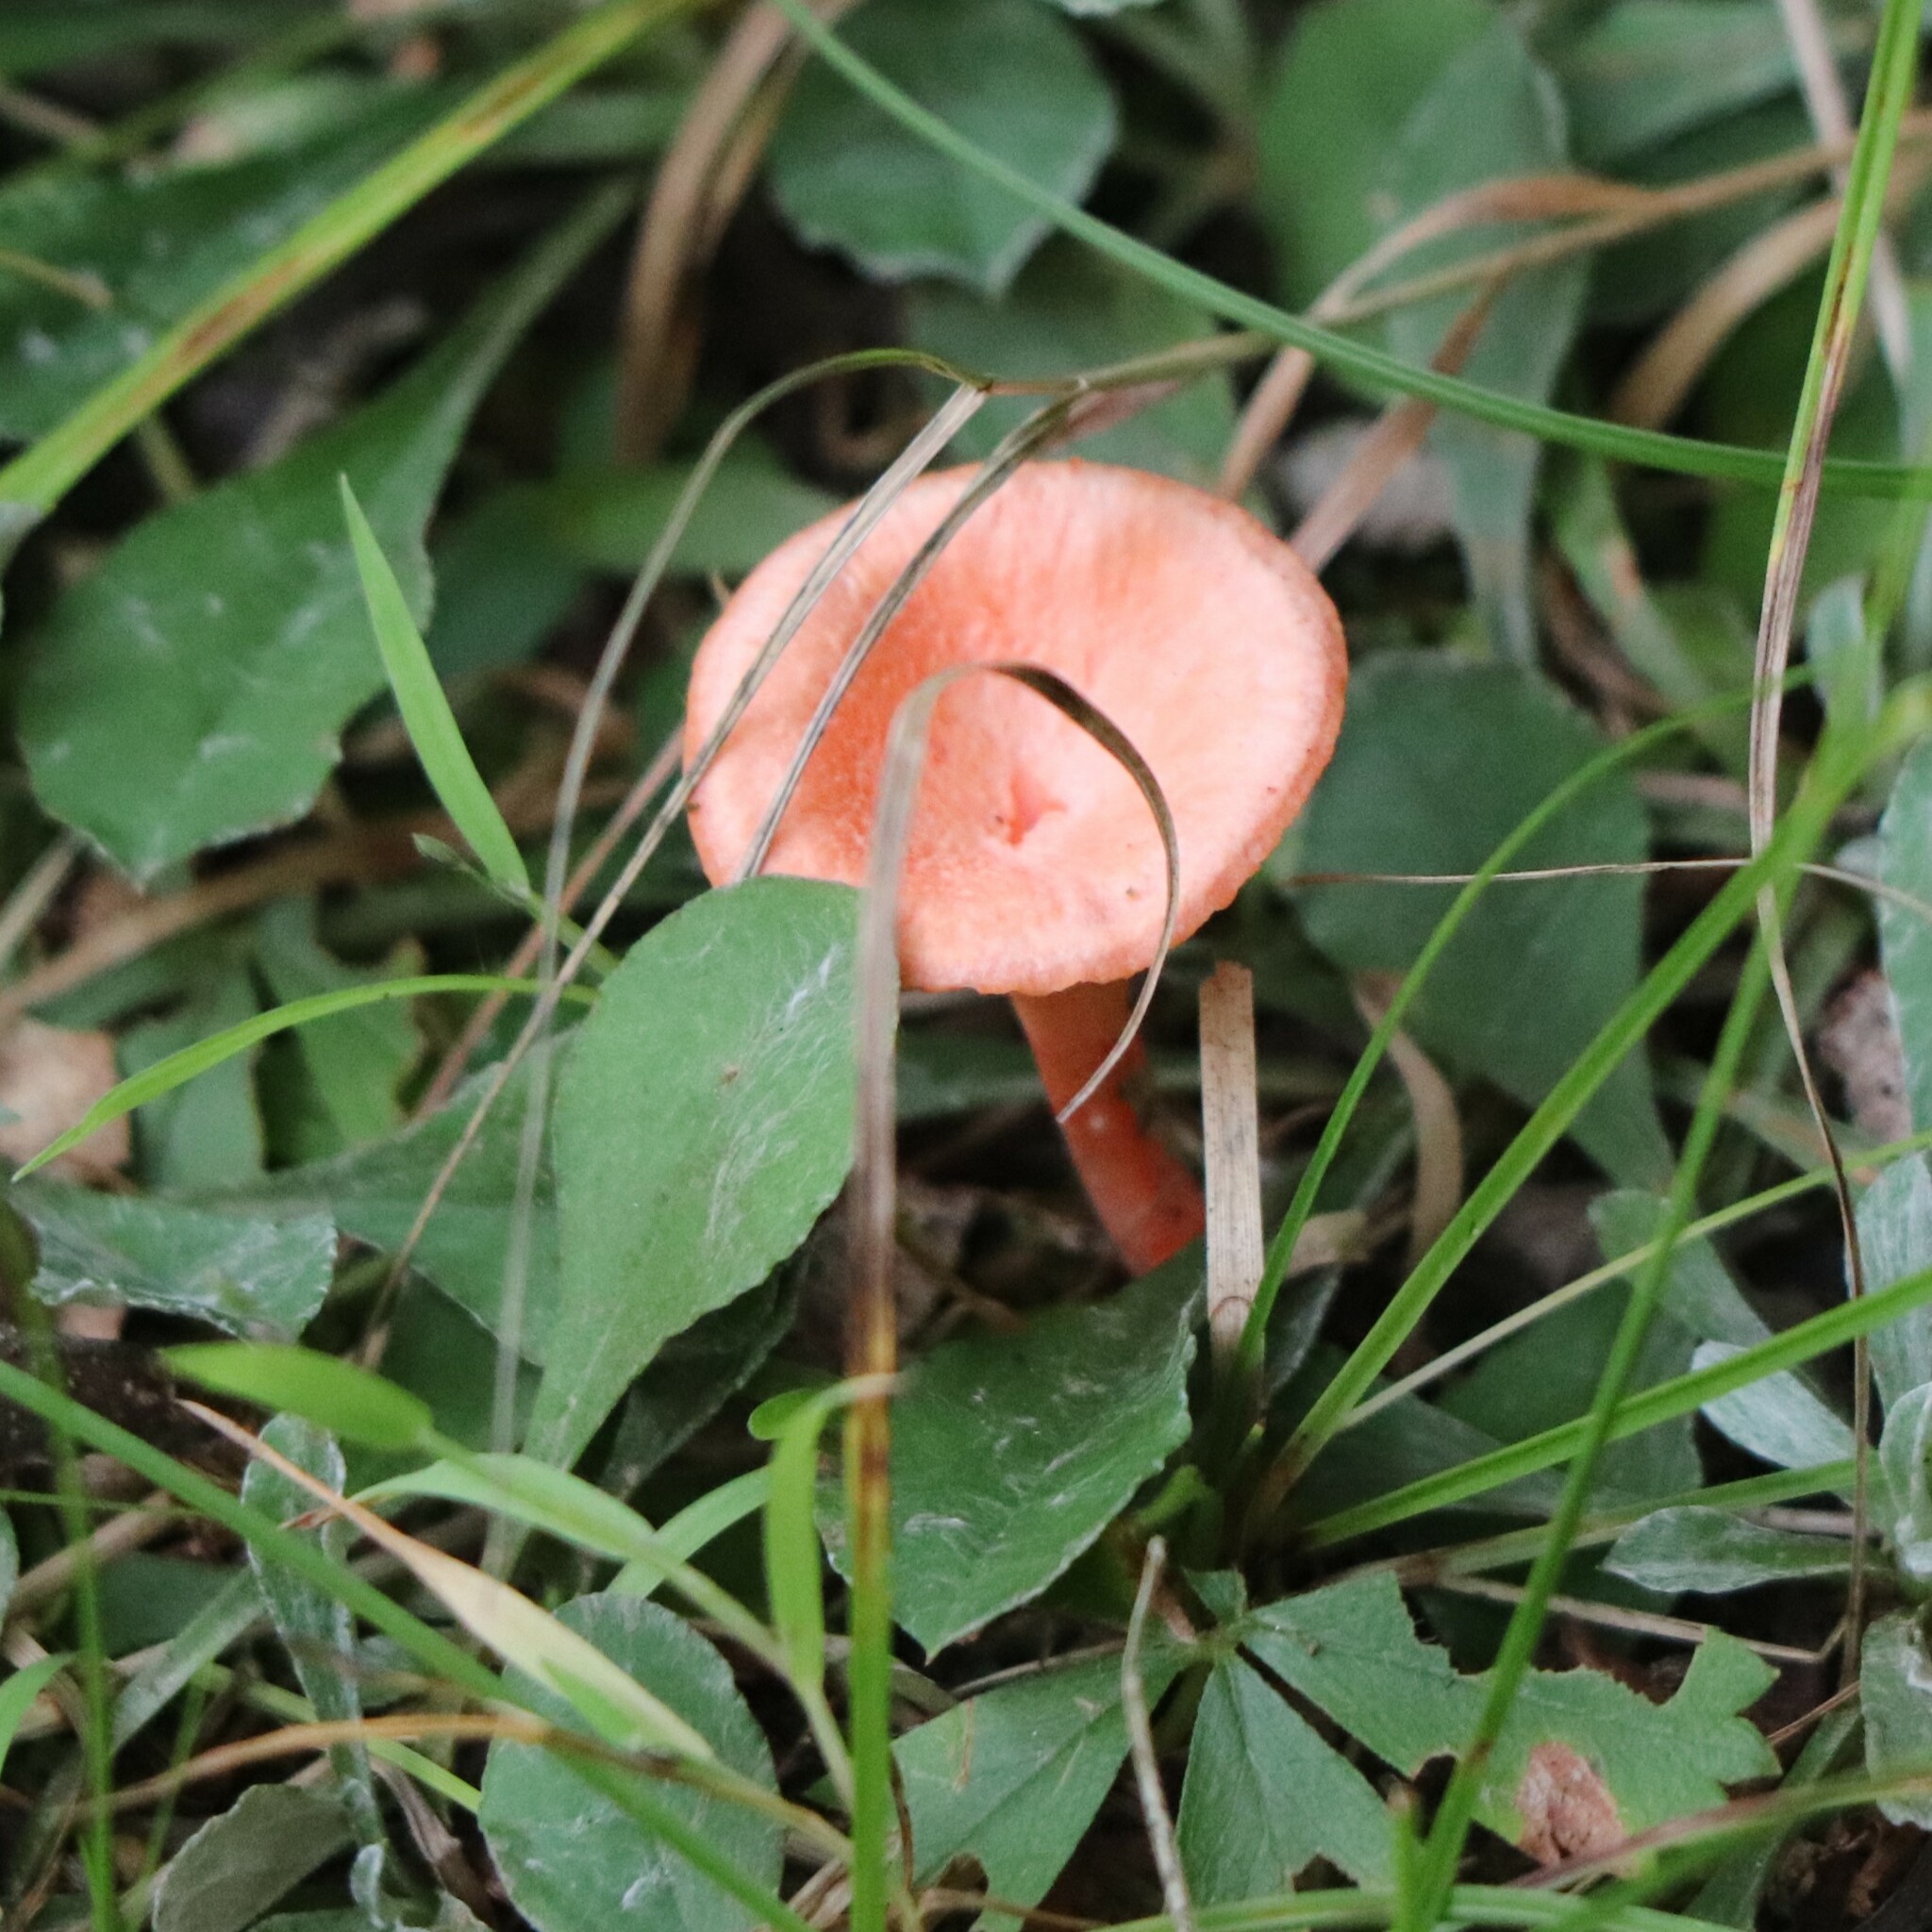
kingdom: Fungi
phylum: Basidiomycota
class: Agaricomycetes
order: Cantharellales
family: Hydnaceae
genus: Cantharellus
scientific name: Cantharellus cinnabarinus
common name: Cinnabar chanterelle
